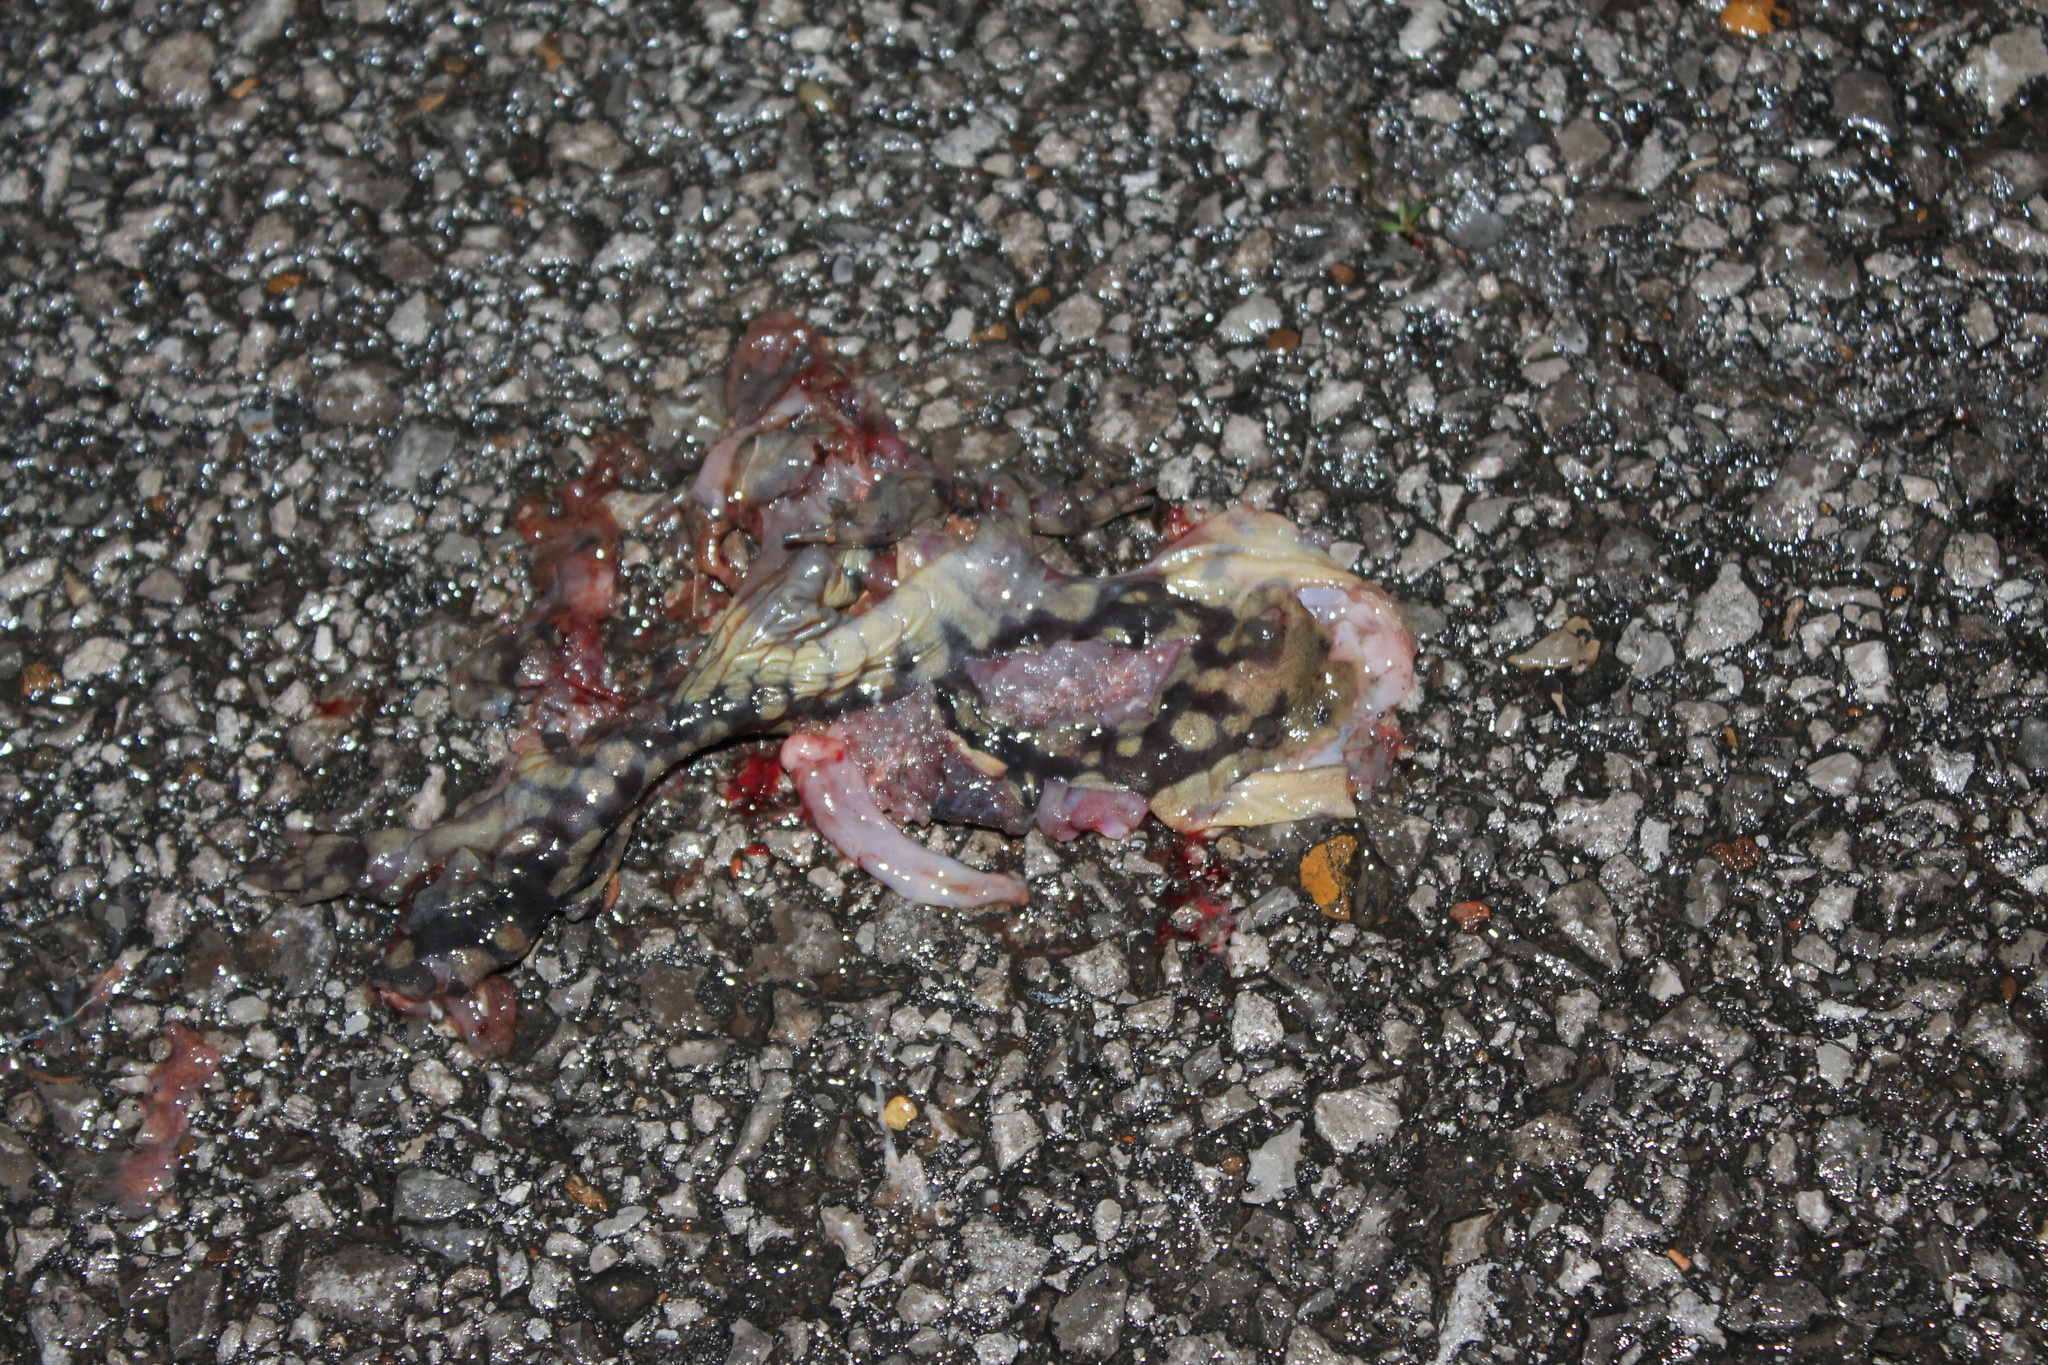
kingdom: Animalia
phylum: Chordata
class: Amphibia
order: Caudata
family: Ambystomatidae
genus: Ambystoma
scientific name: Ambystoma tigrinum
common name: Tiger salamander
